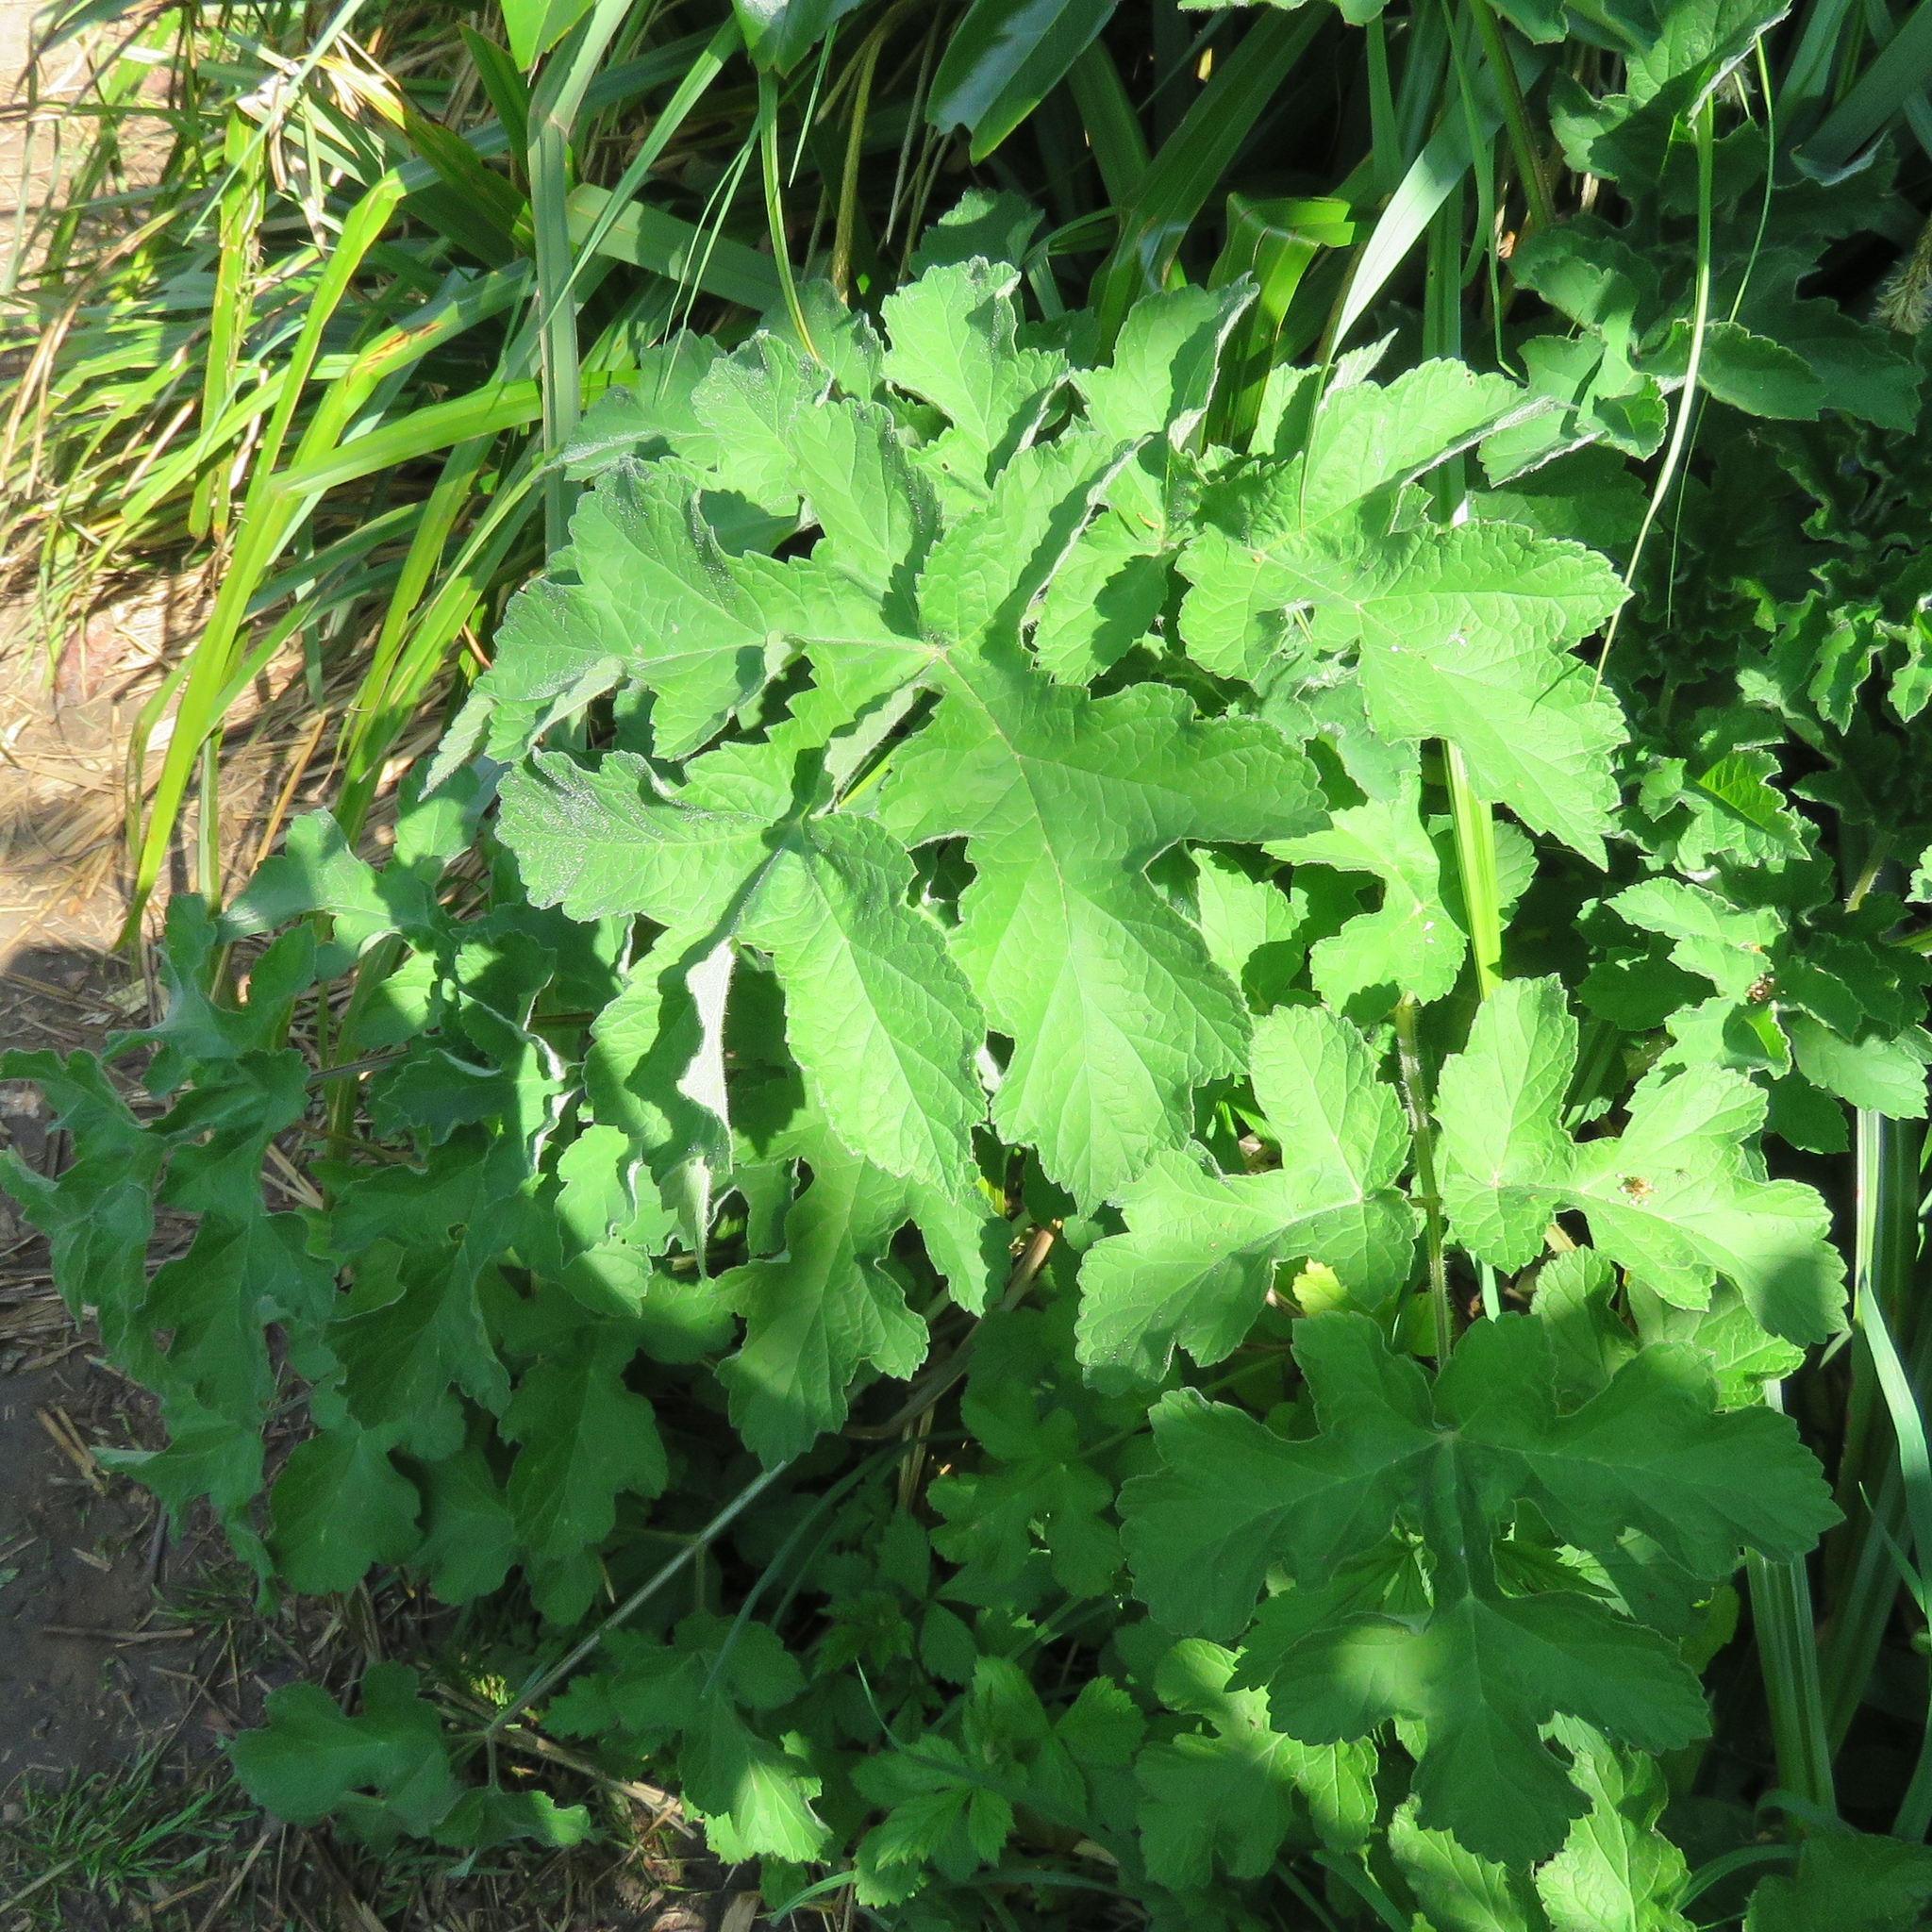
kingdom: Plantae
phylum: Tracheophyta
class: Magnoliopsida
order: Apiales
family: Apiaceae
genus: Heracleum
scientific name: Heracleum sphondylium
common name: Hogweed
